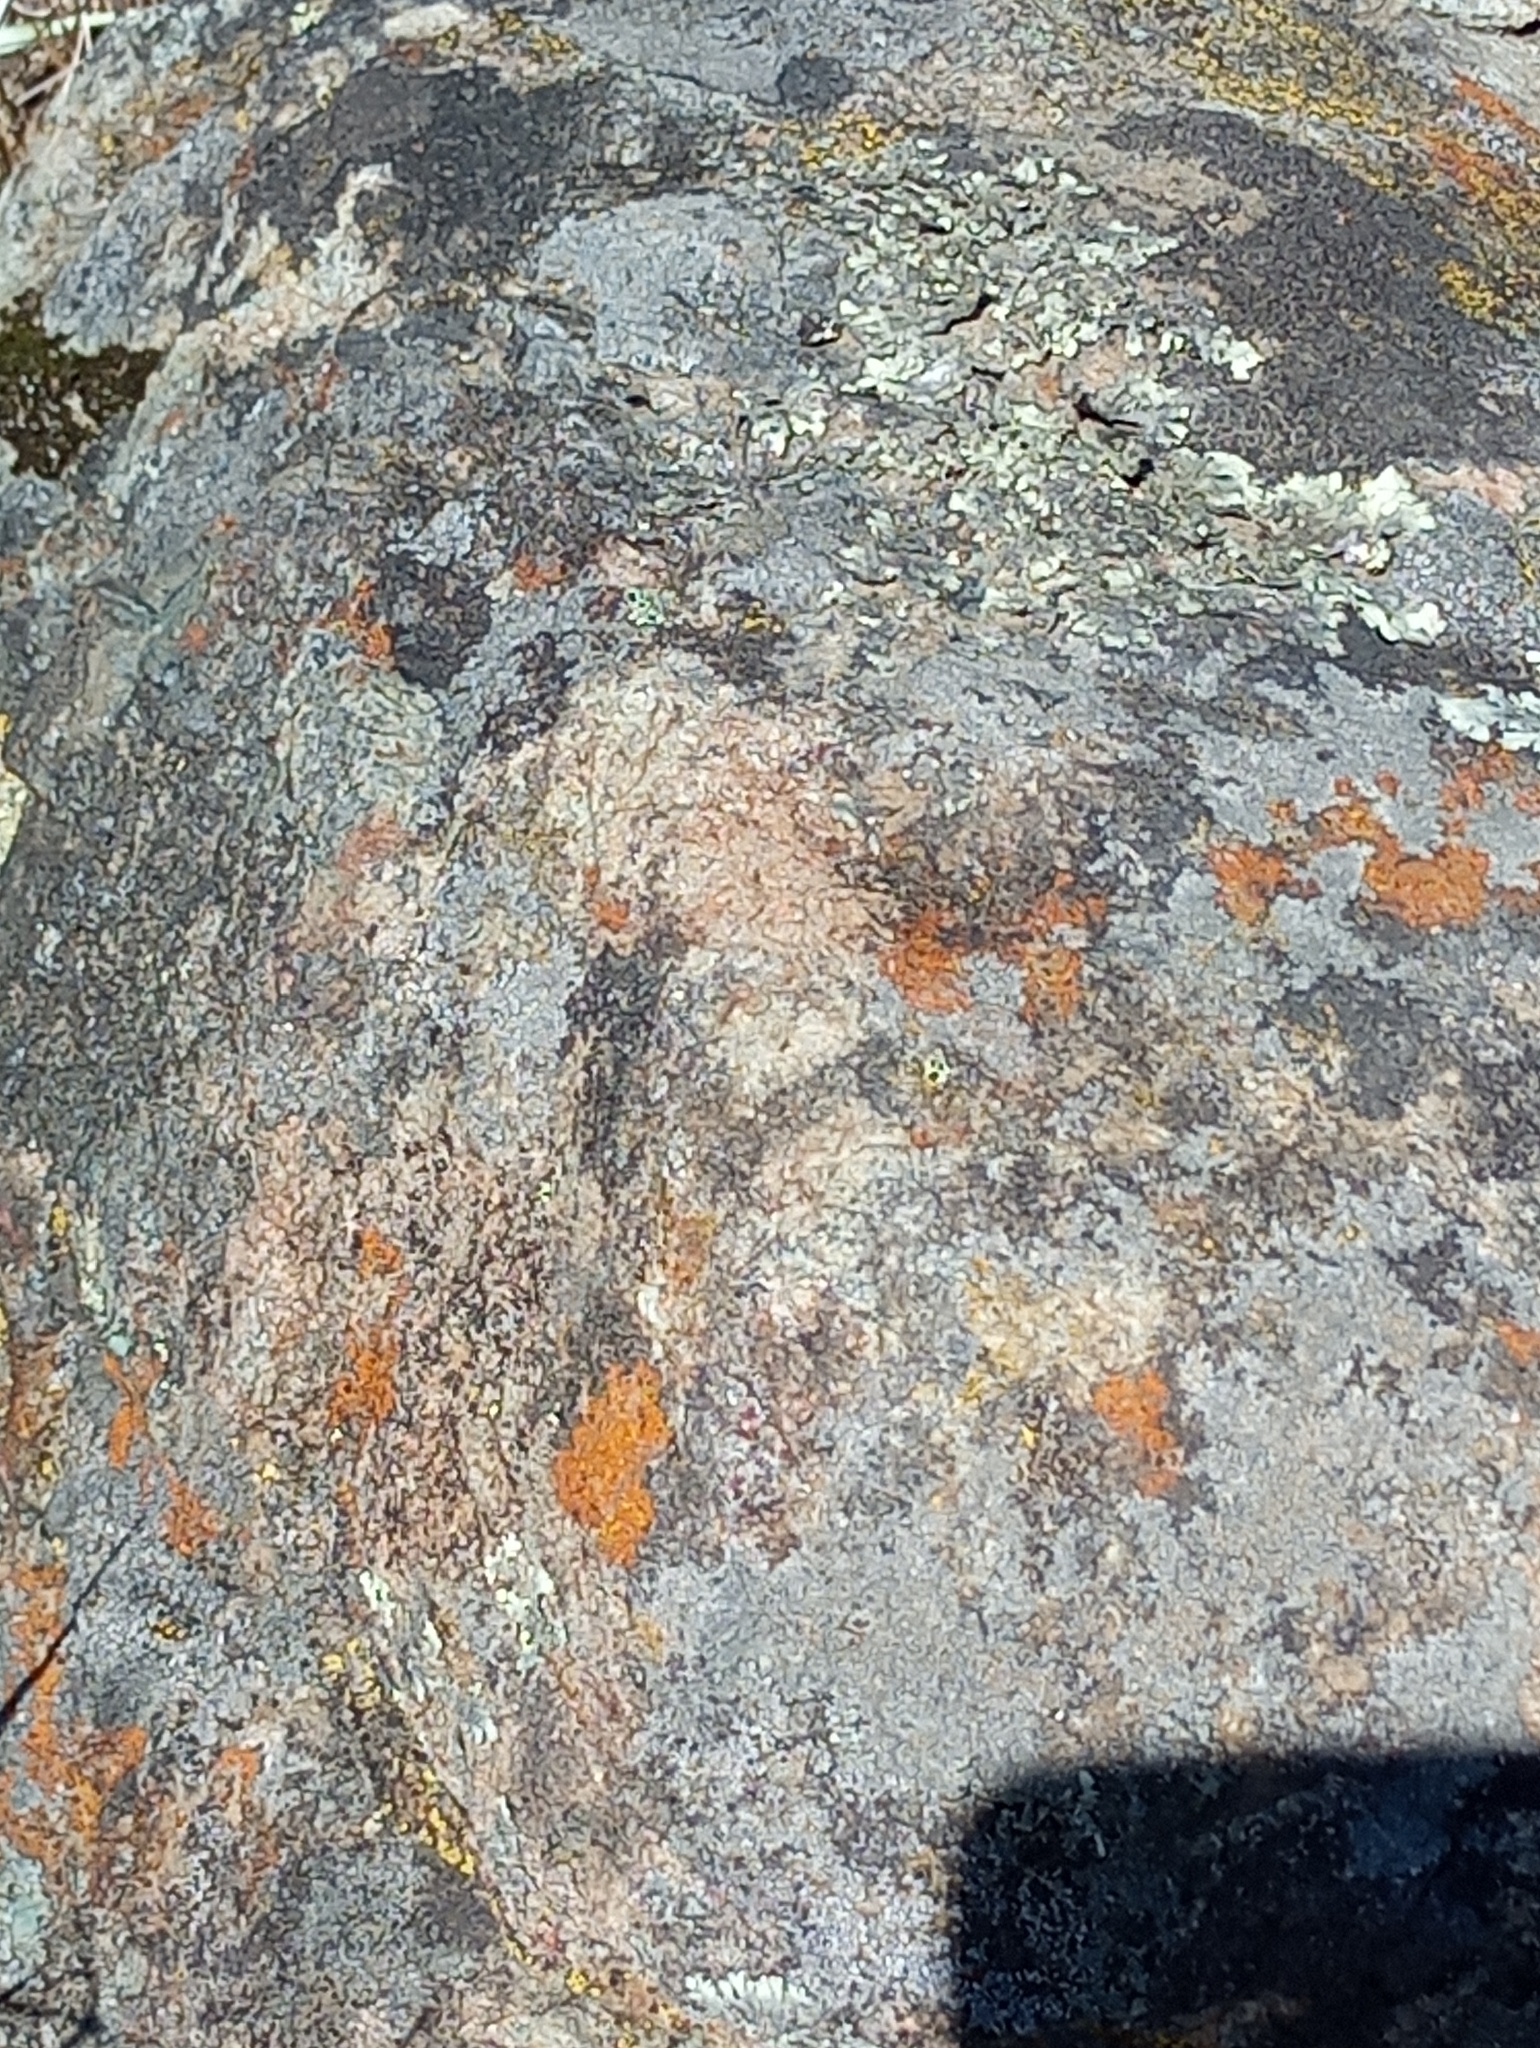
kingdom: Fungi
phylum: Ascomycota
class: Lecanoromycetes
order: Teloschistales
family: Teloschistaceae
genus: Xanthoria
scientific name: Xanthoria elegans
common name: Elegant sunburst lichen
